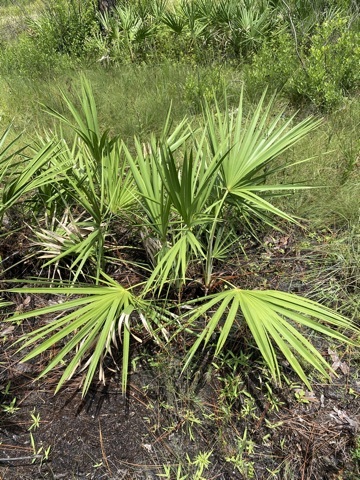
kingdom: Plantae
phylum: Tracheophyta
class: Liliopsida
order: Arecales
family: Arecaceae
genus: Serenoa
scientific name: Serenoa repens
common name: Saw-palmetto
